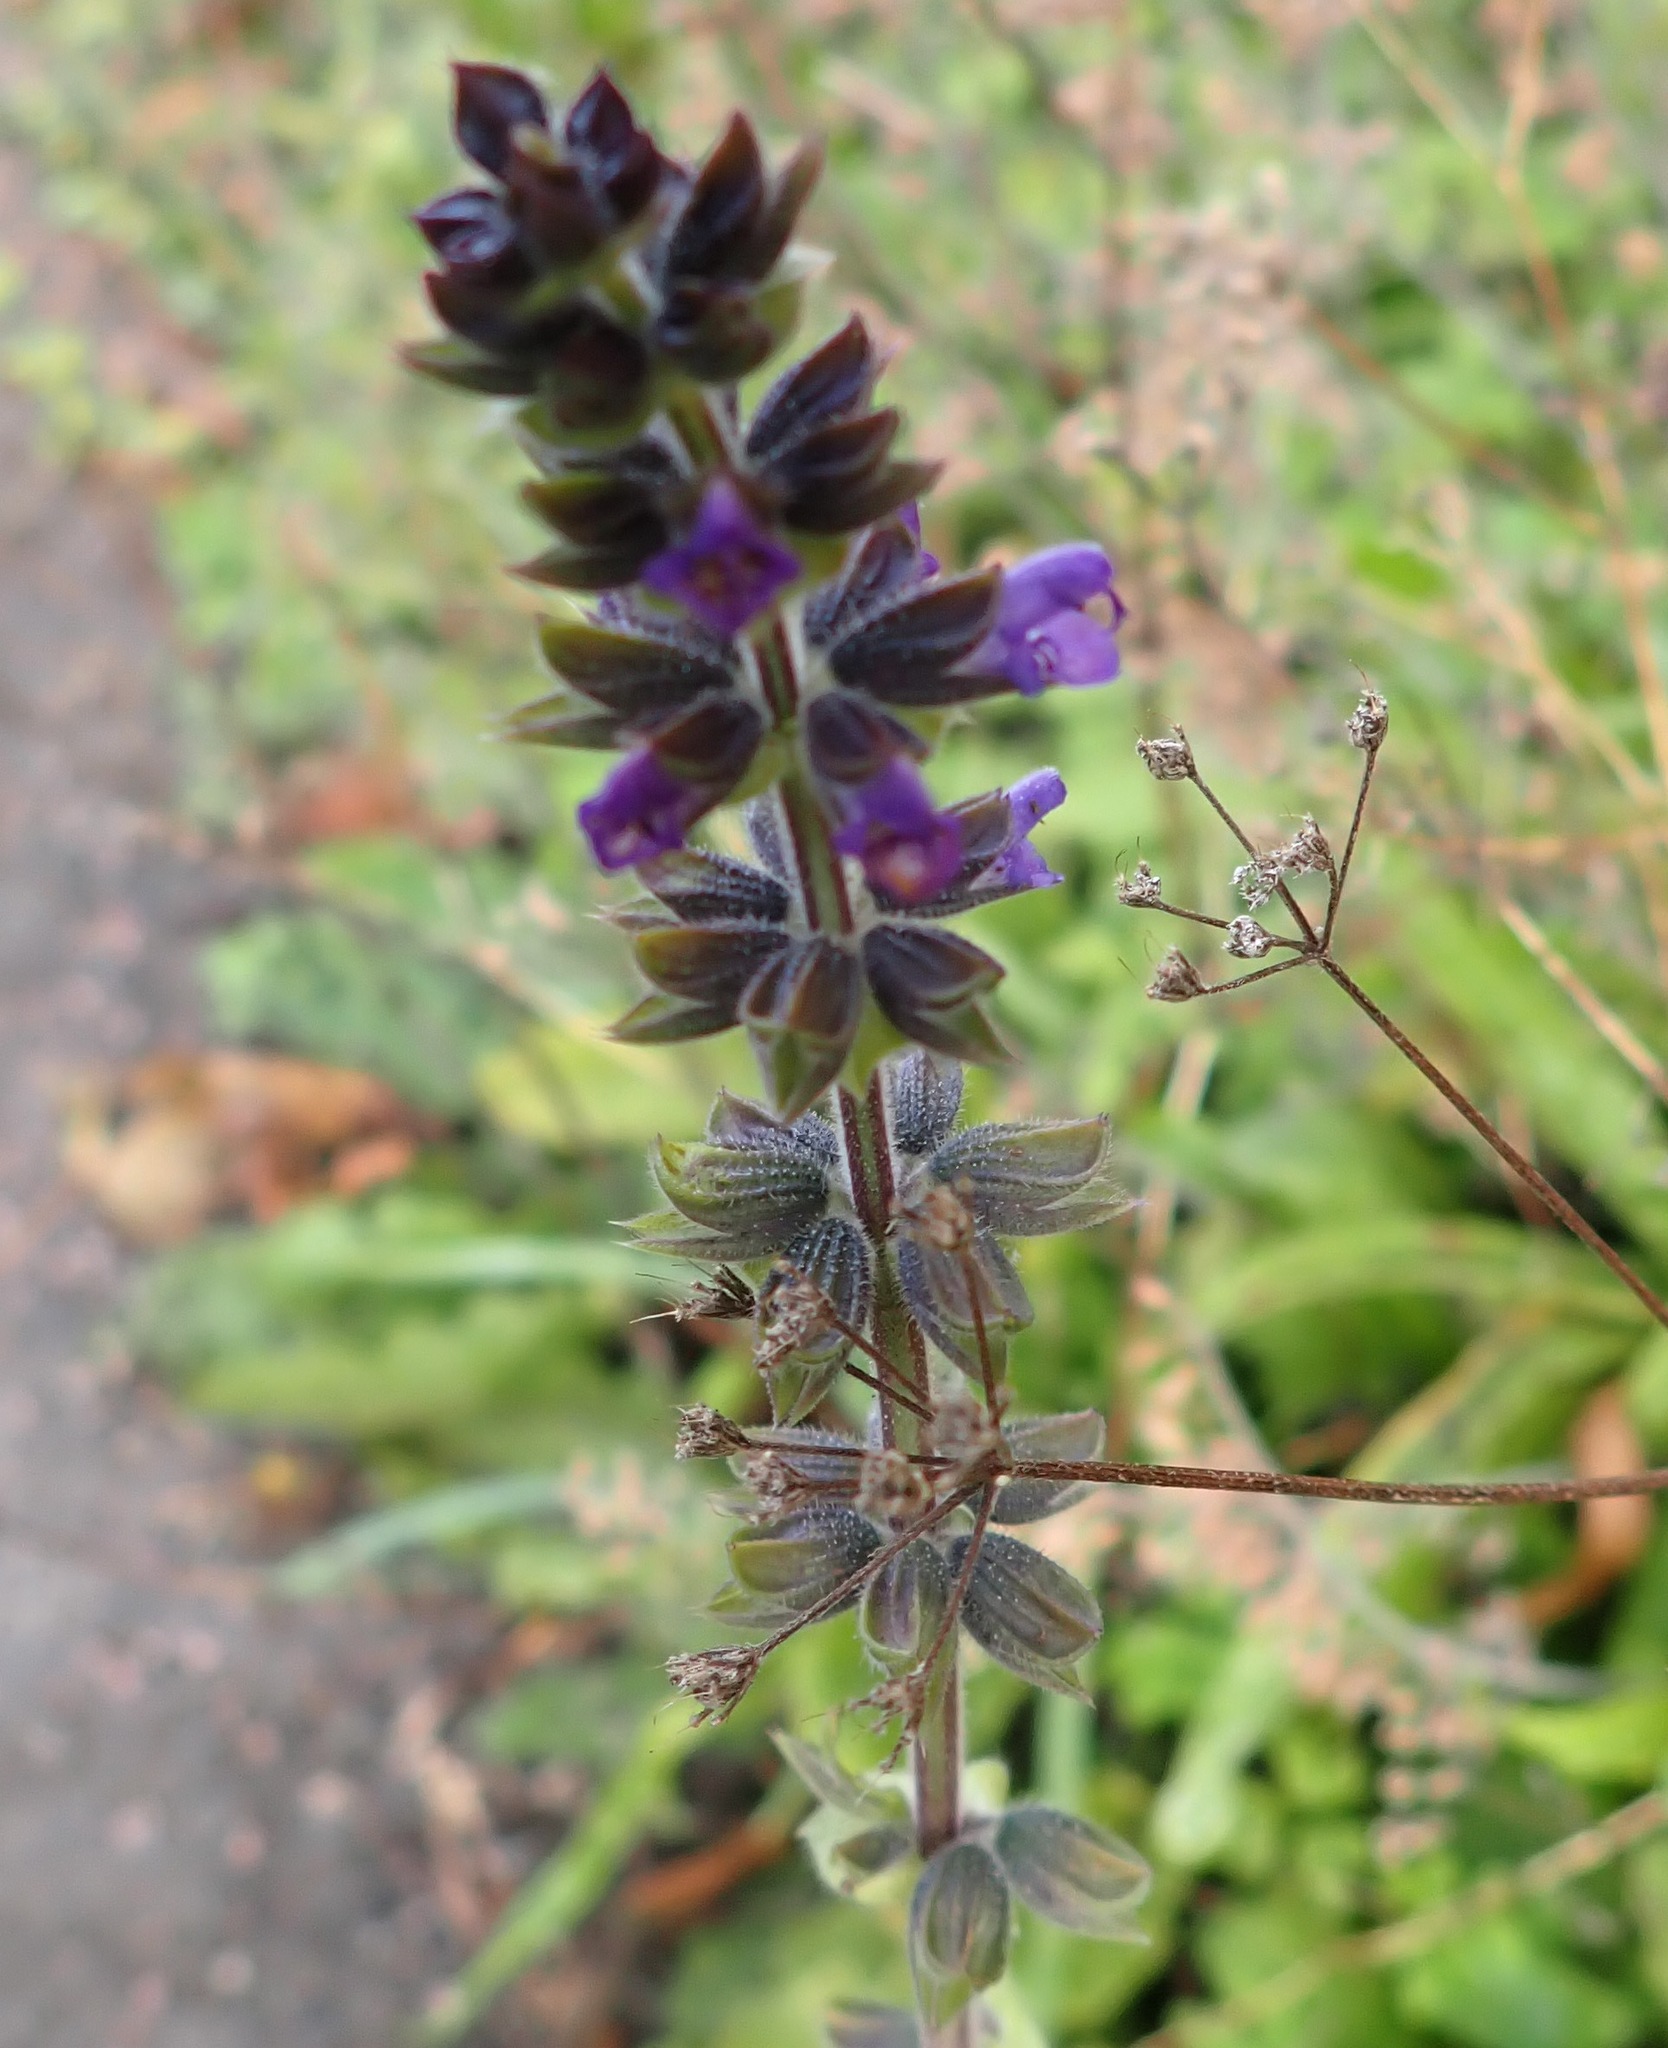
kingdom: Plantae
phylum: Tracheophyta
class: Magnoliopsida
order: Lamiales
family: Lamiaceae
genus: Salvia
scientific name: Salvia verbenaca
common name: Wild clary
